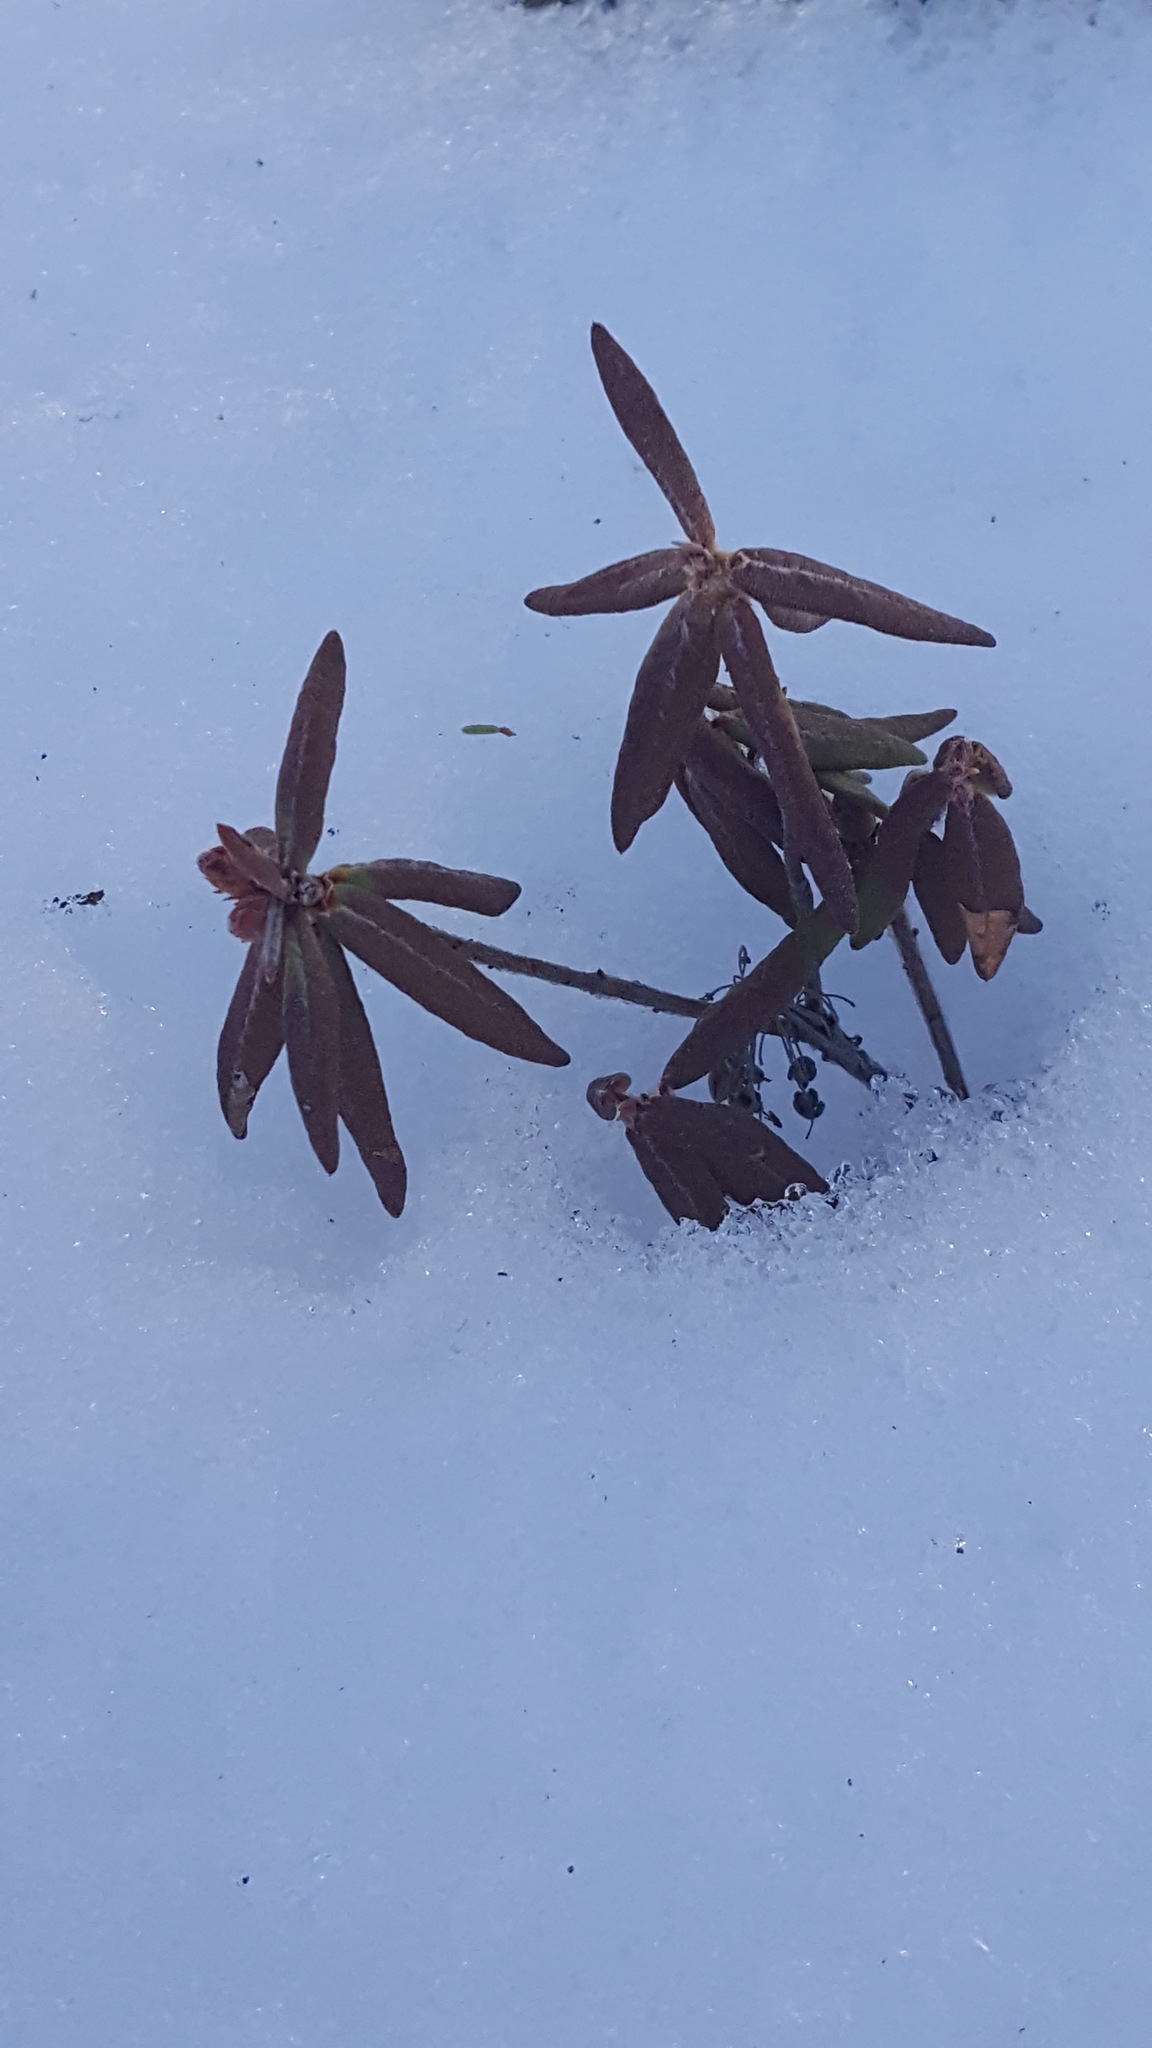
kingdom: Plantae
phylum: Tracheophyta
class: Magnoliopsida
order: Ericales
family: Ericaceae
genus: Rhododendron
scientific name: Rhododendron groenlandicum
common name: Bog labrador tea
